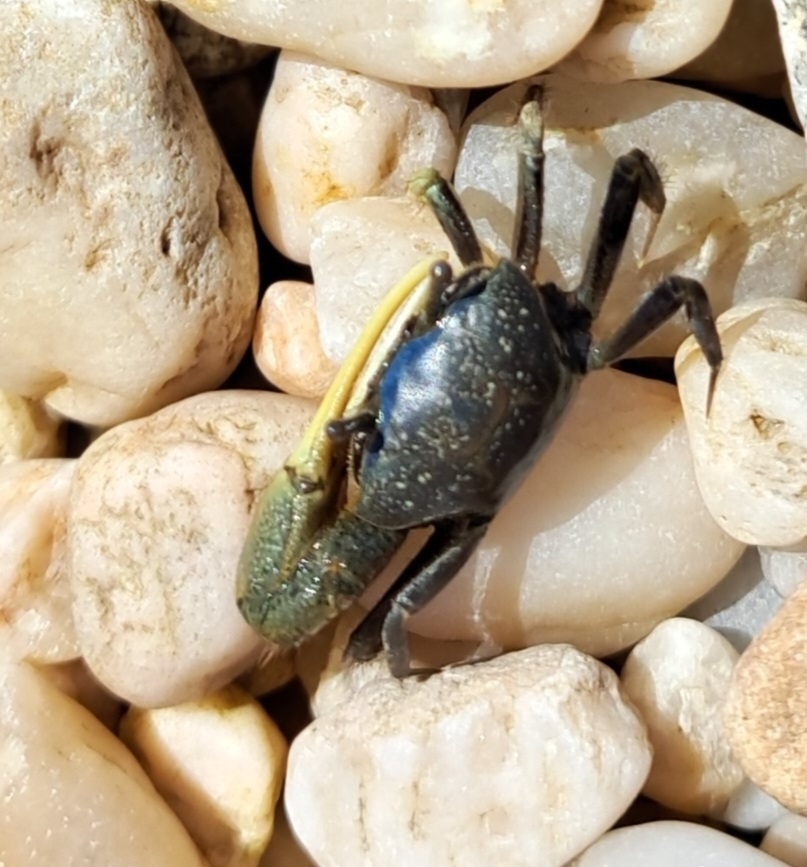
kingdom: Animalia
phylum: Arthropoda
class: Malacostraca
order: Decapoda
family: Ocypodidae
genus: Minuca
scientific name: Minuca pugnax
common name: Mud fiddler crab
